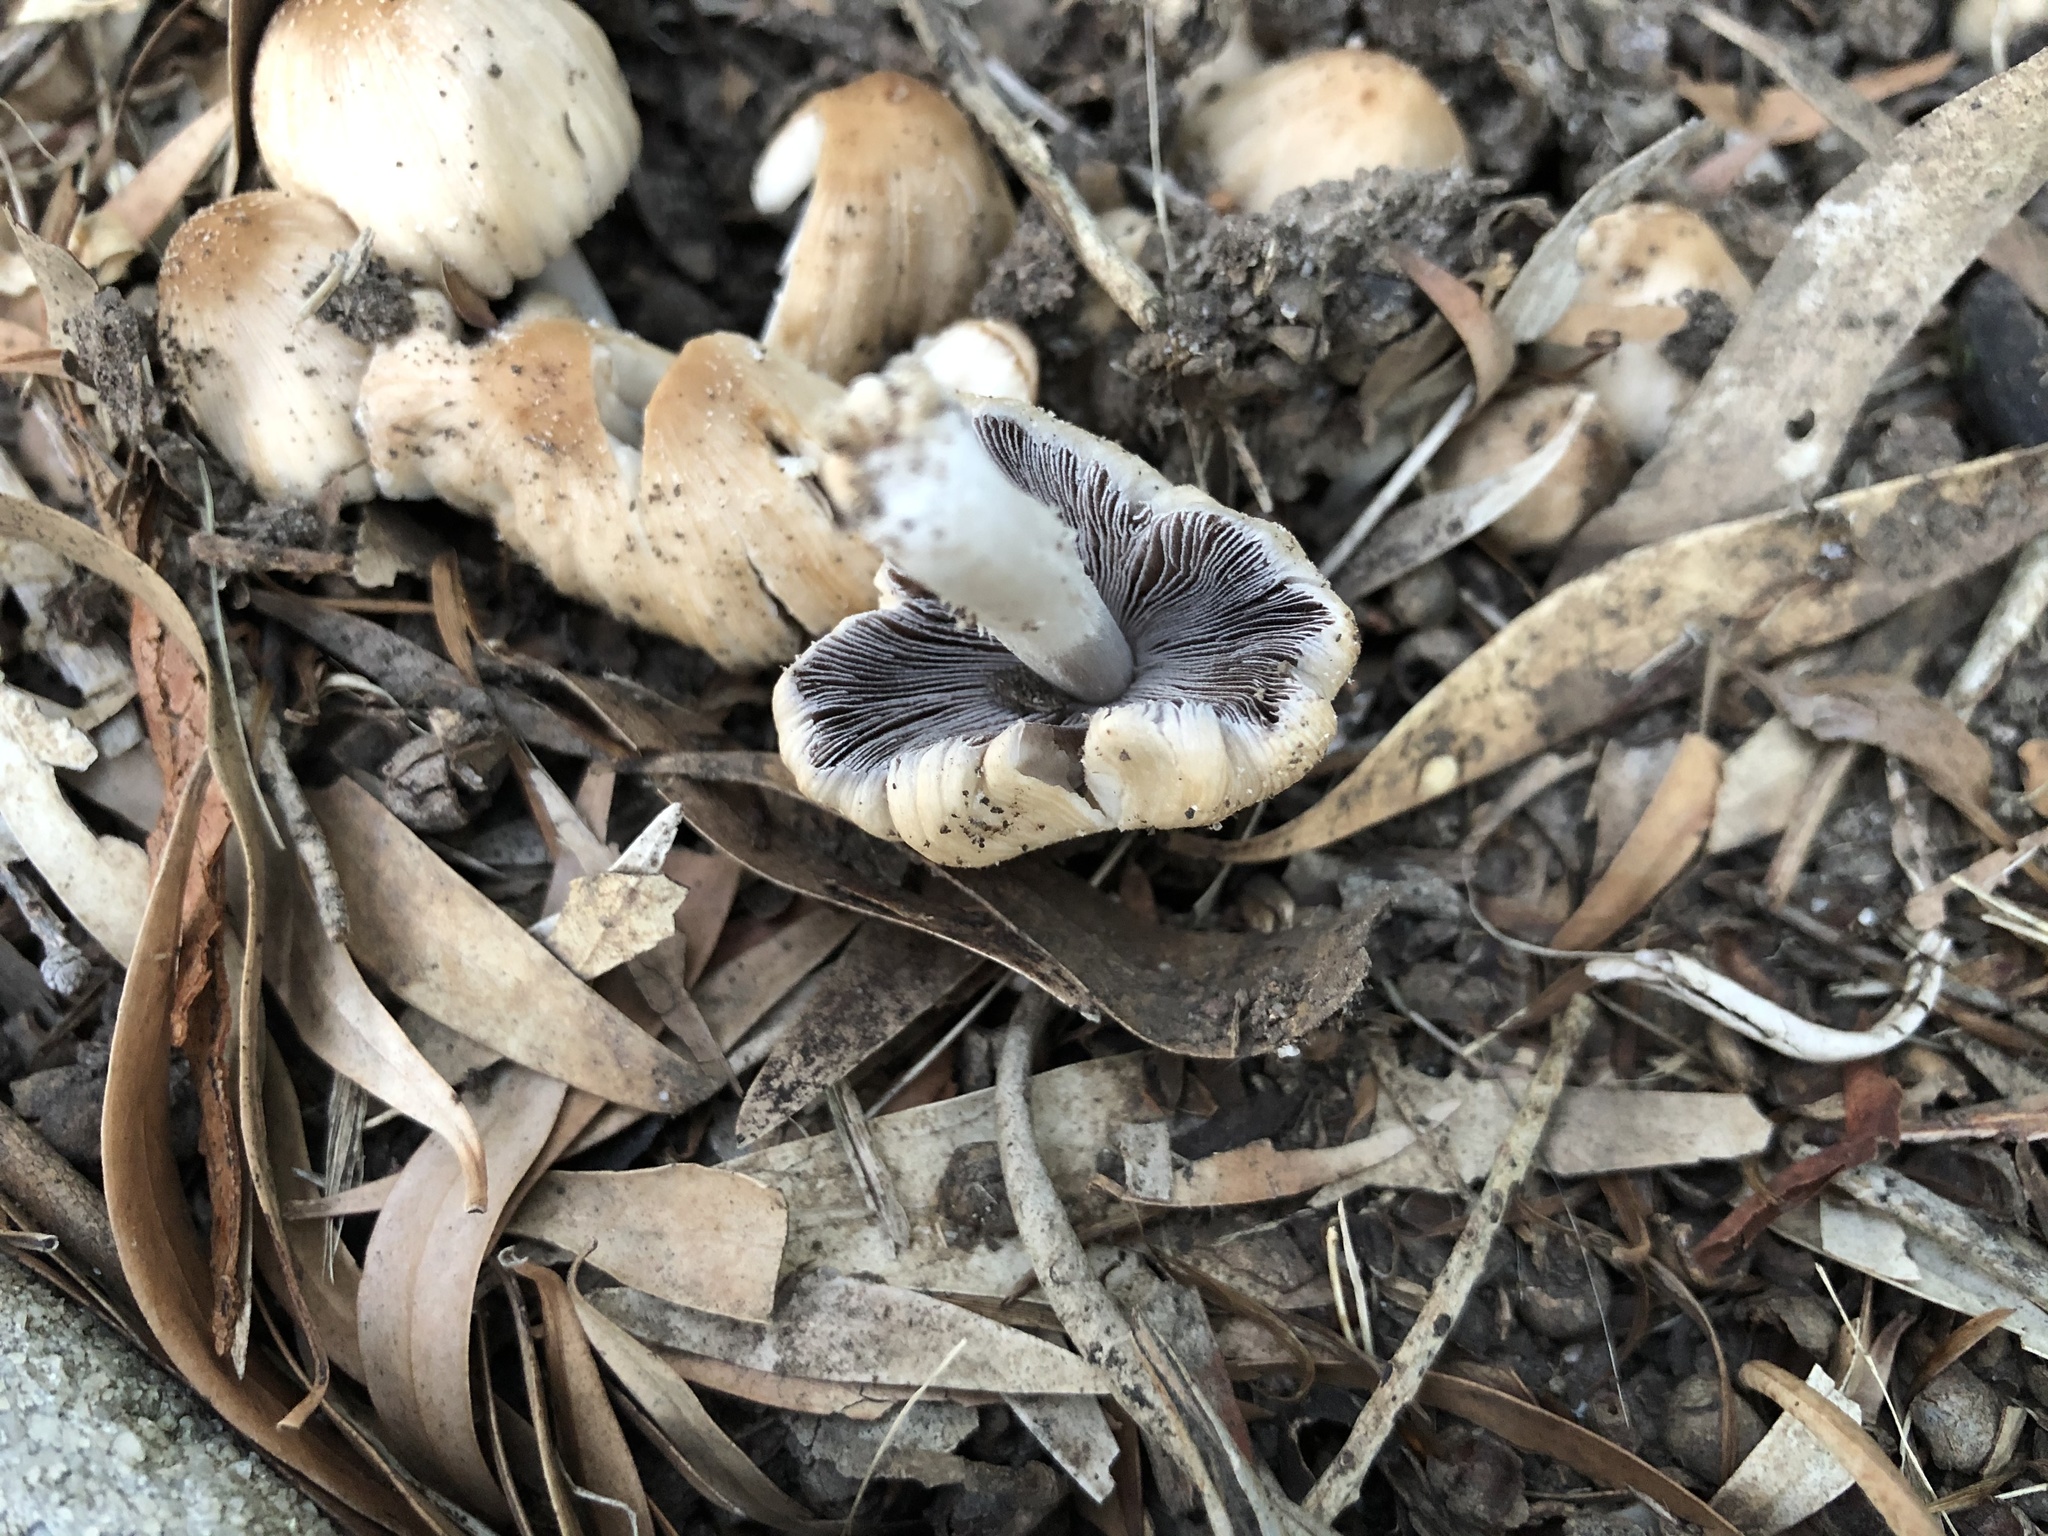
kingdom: Fungi
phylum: Basidiomycota
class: Agaricomycetes
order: Agaricales
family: Psathyrellaceae
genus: Coprinellus
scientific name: Coprinellus
